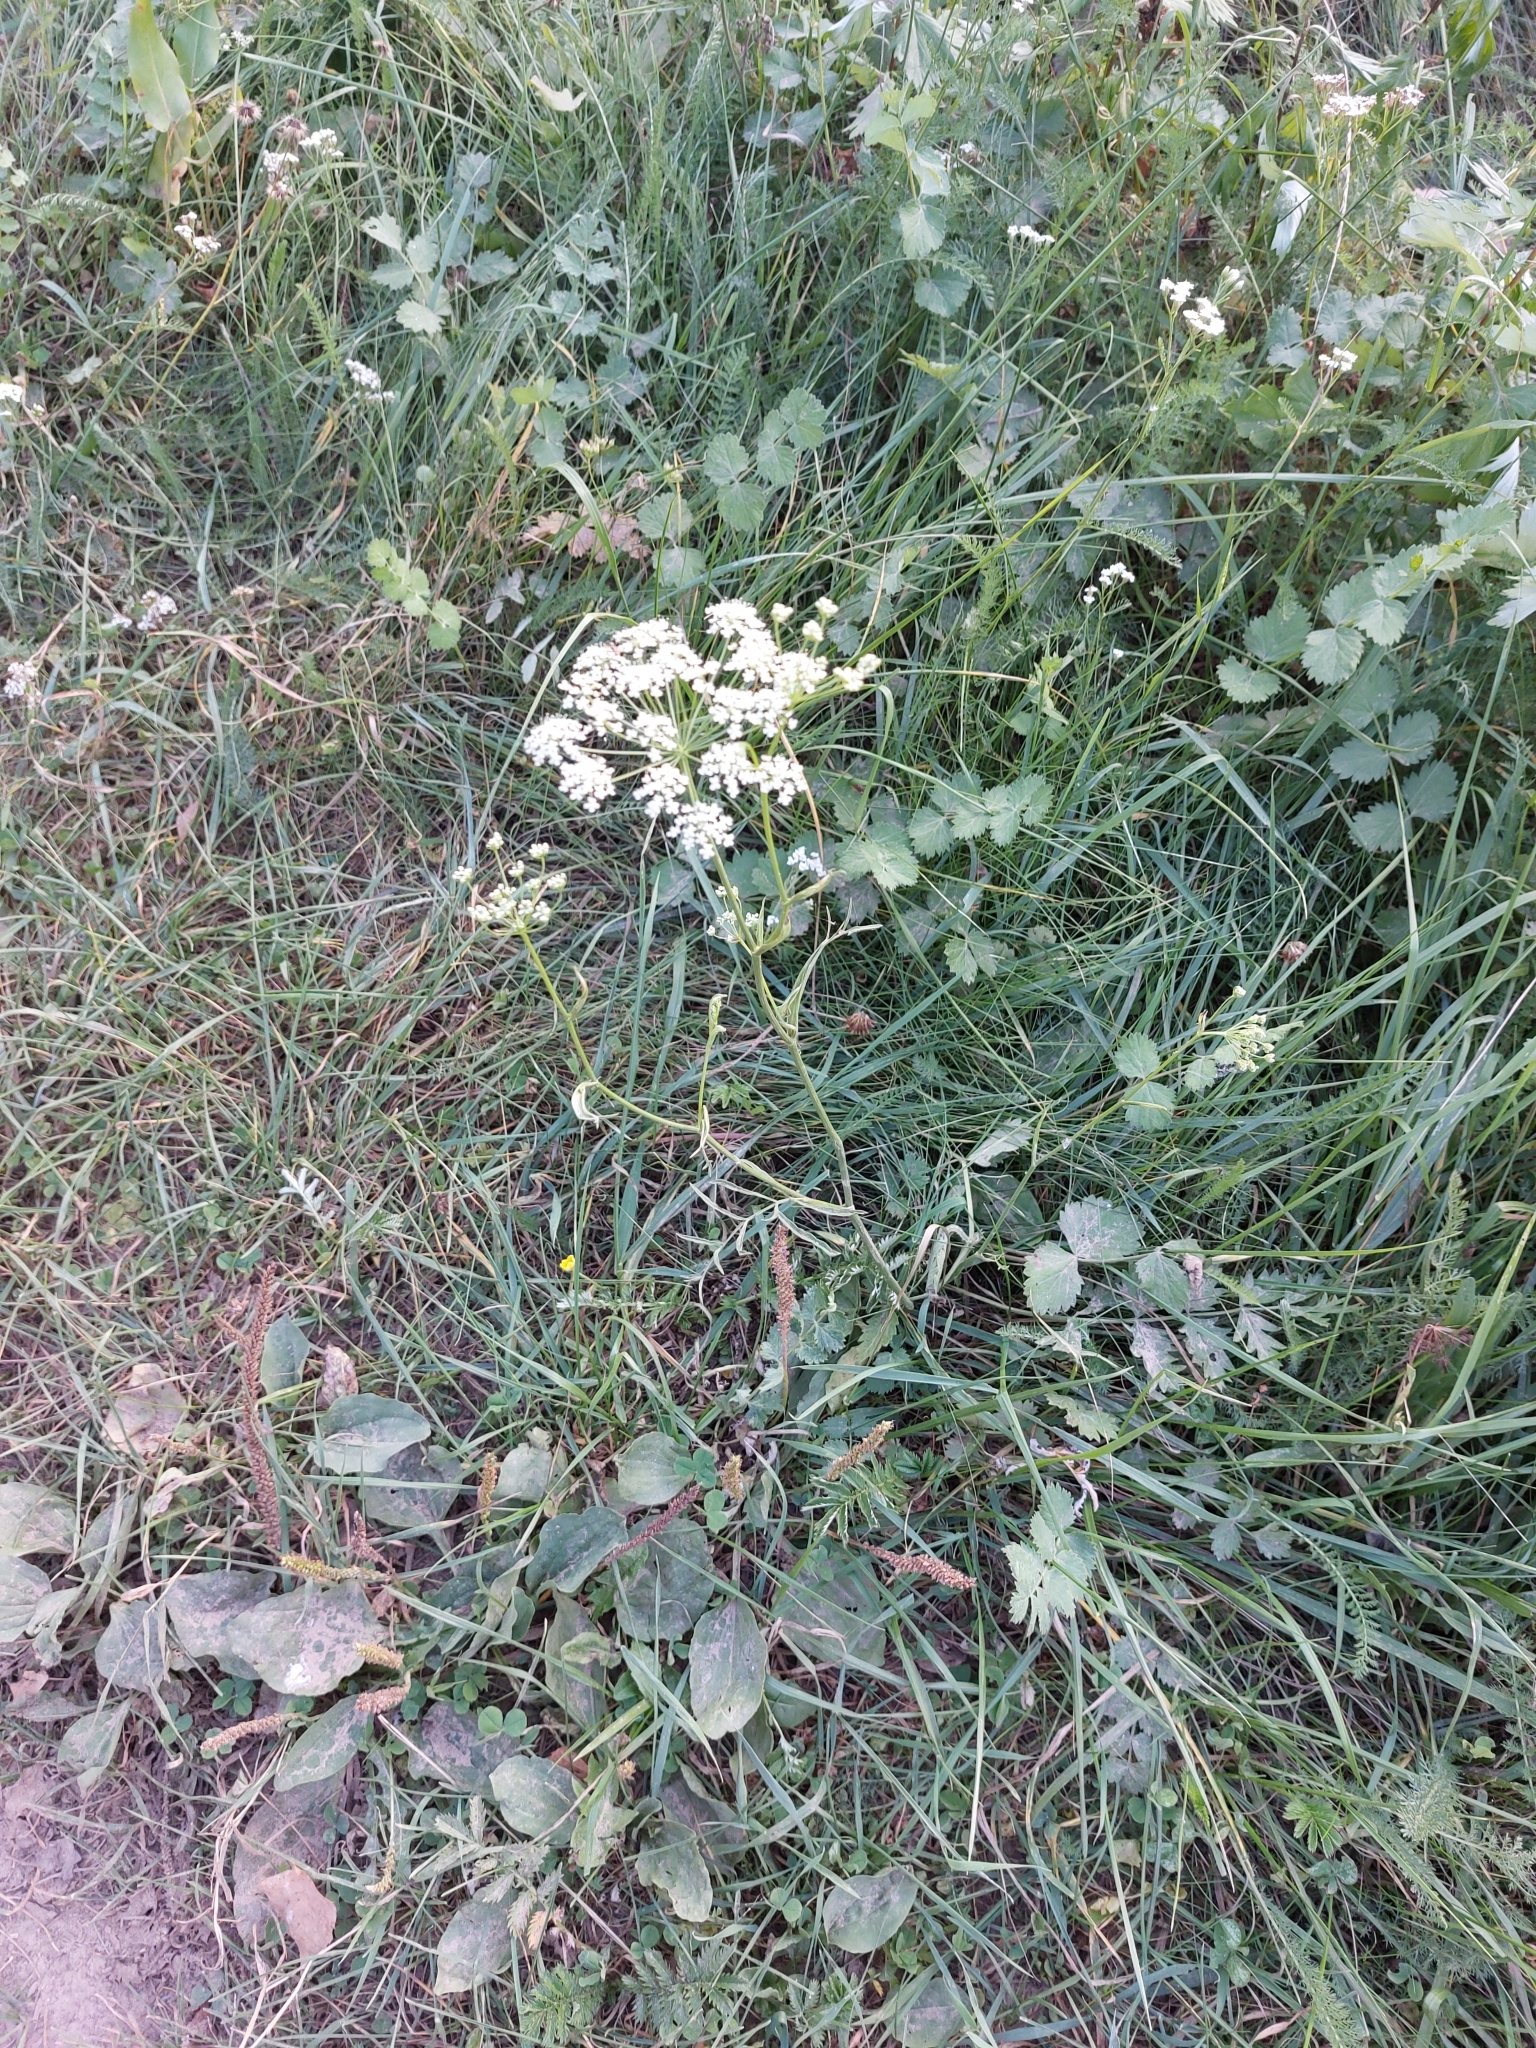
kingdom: Plantae
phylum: Tracheophyta
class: Magnoliopsida
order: Apiales
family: Apiaceae
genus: Pimpinella
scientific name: Pimpinella saxifraga
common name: Burnet-saxifrage
